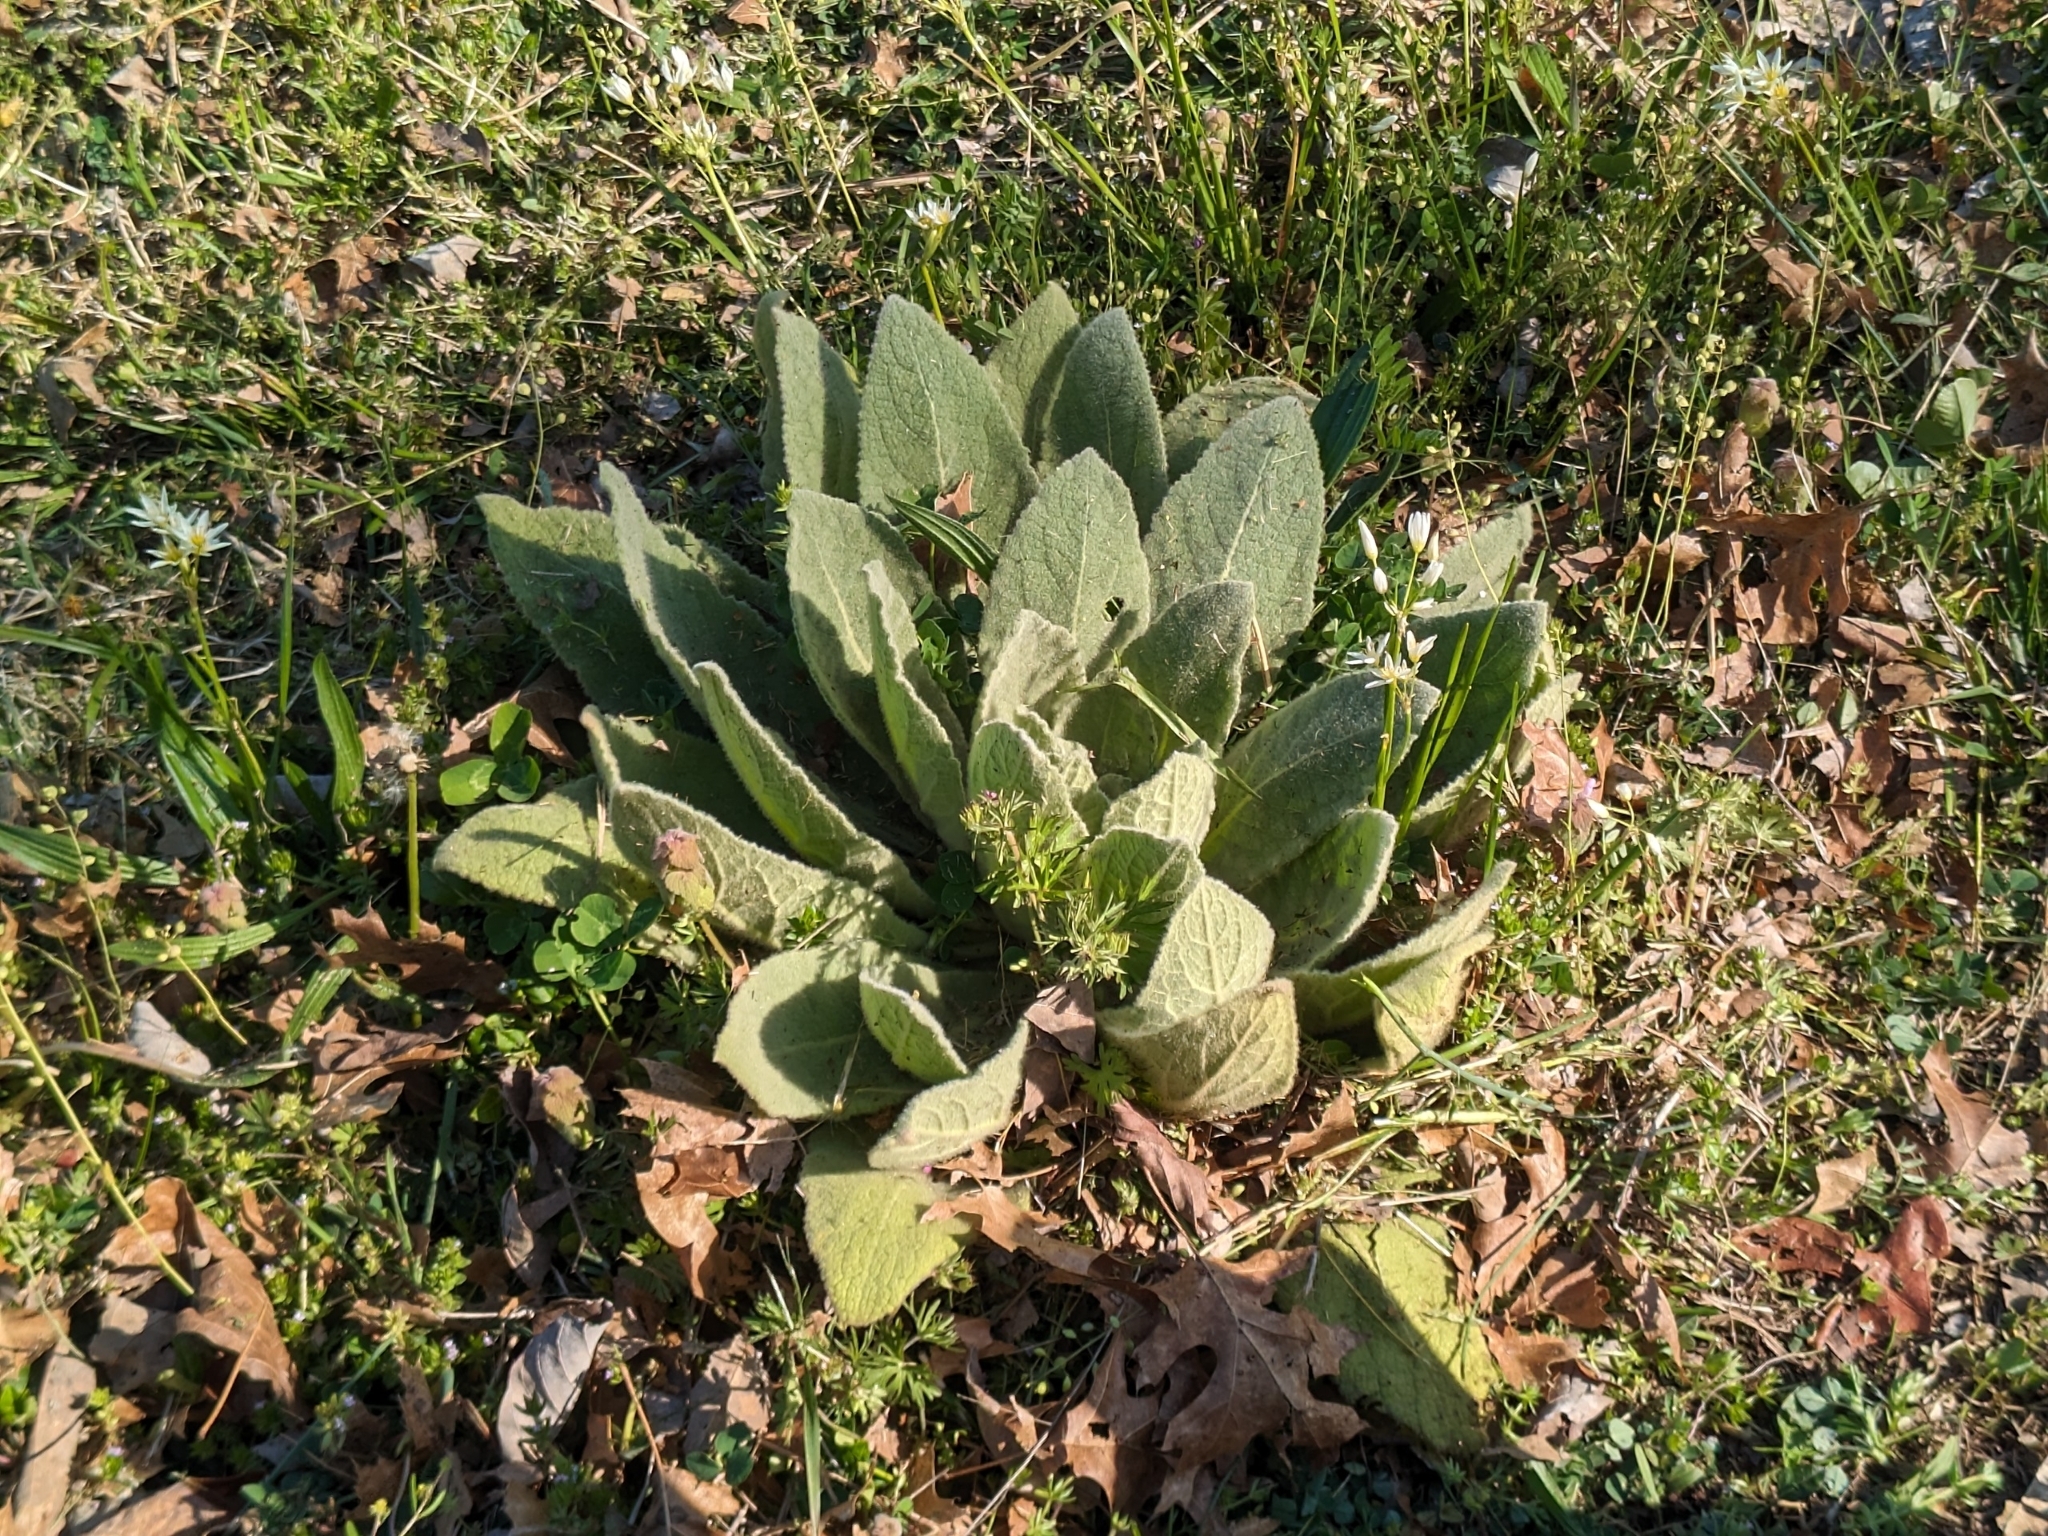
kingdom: Plantae
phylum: Tracheophyta
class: Magnoliopsida
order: Lamiales
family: Scrophulariaceae
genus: Verbascum
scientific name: Verbascum thapsus
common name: Common mullein
